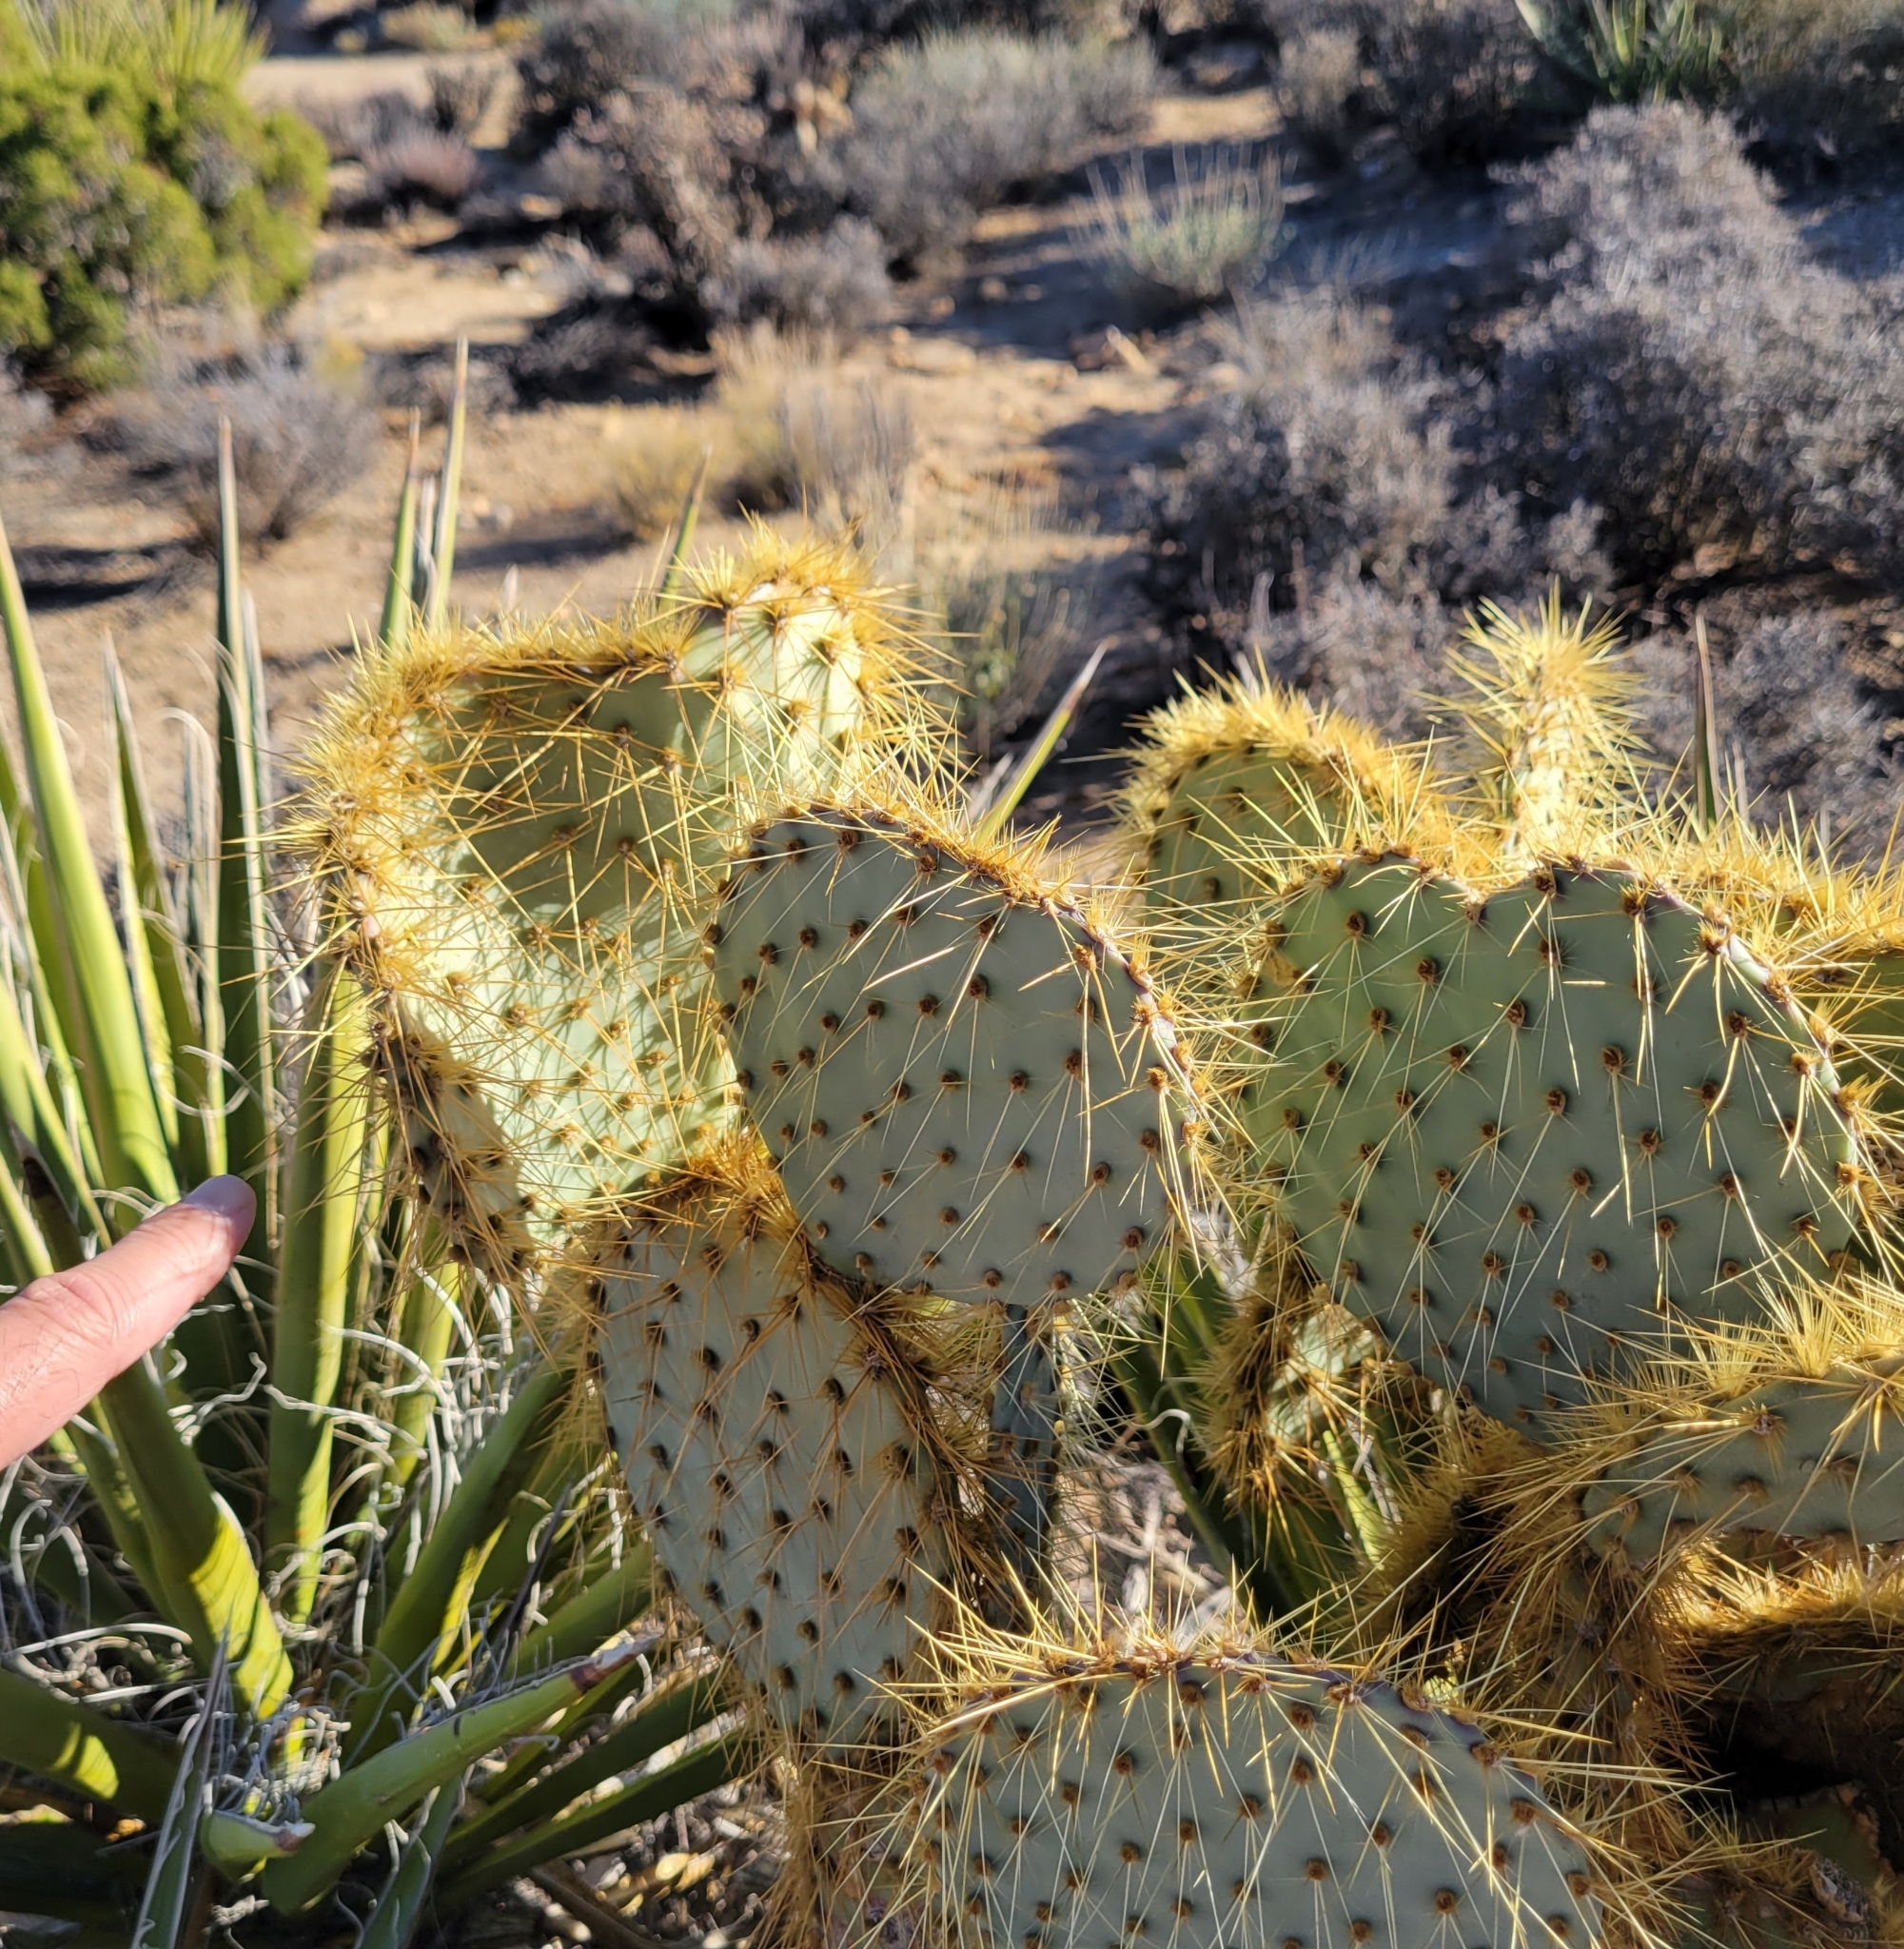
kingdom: Plantae
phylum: Tracheophyta
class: Magnoliopsida
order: Caryophyllales
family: Cactaceae
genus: Opuntia
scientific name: Opuntia chlorotica
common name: Dollar-joint prickly-pear
